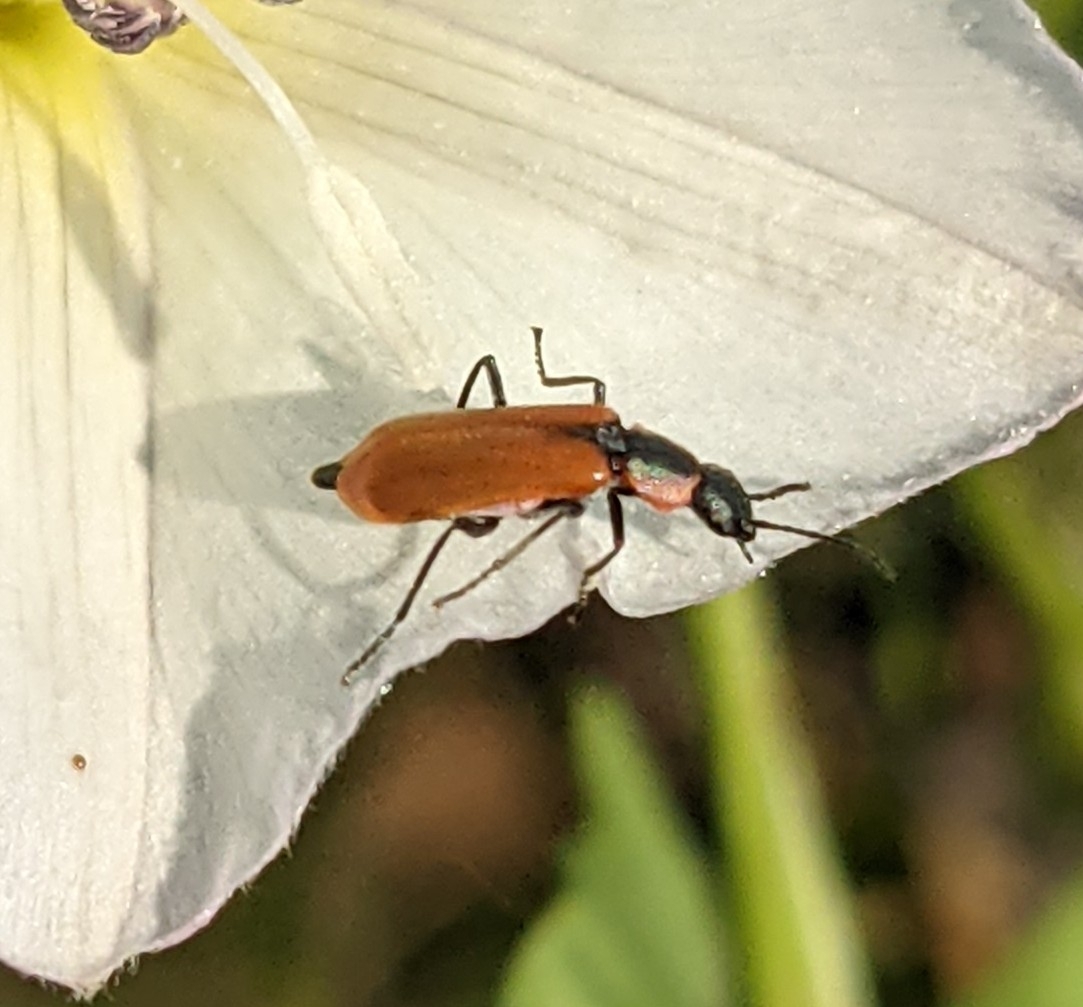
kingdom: Animalia
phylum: Arthropoda
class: Insecta
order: Coleoptera
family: Melyridae
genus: Anthocomus
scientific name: Anthocomus rufus
